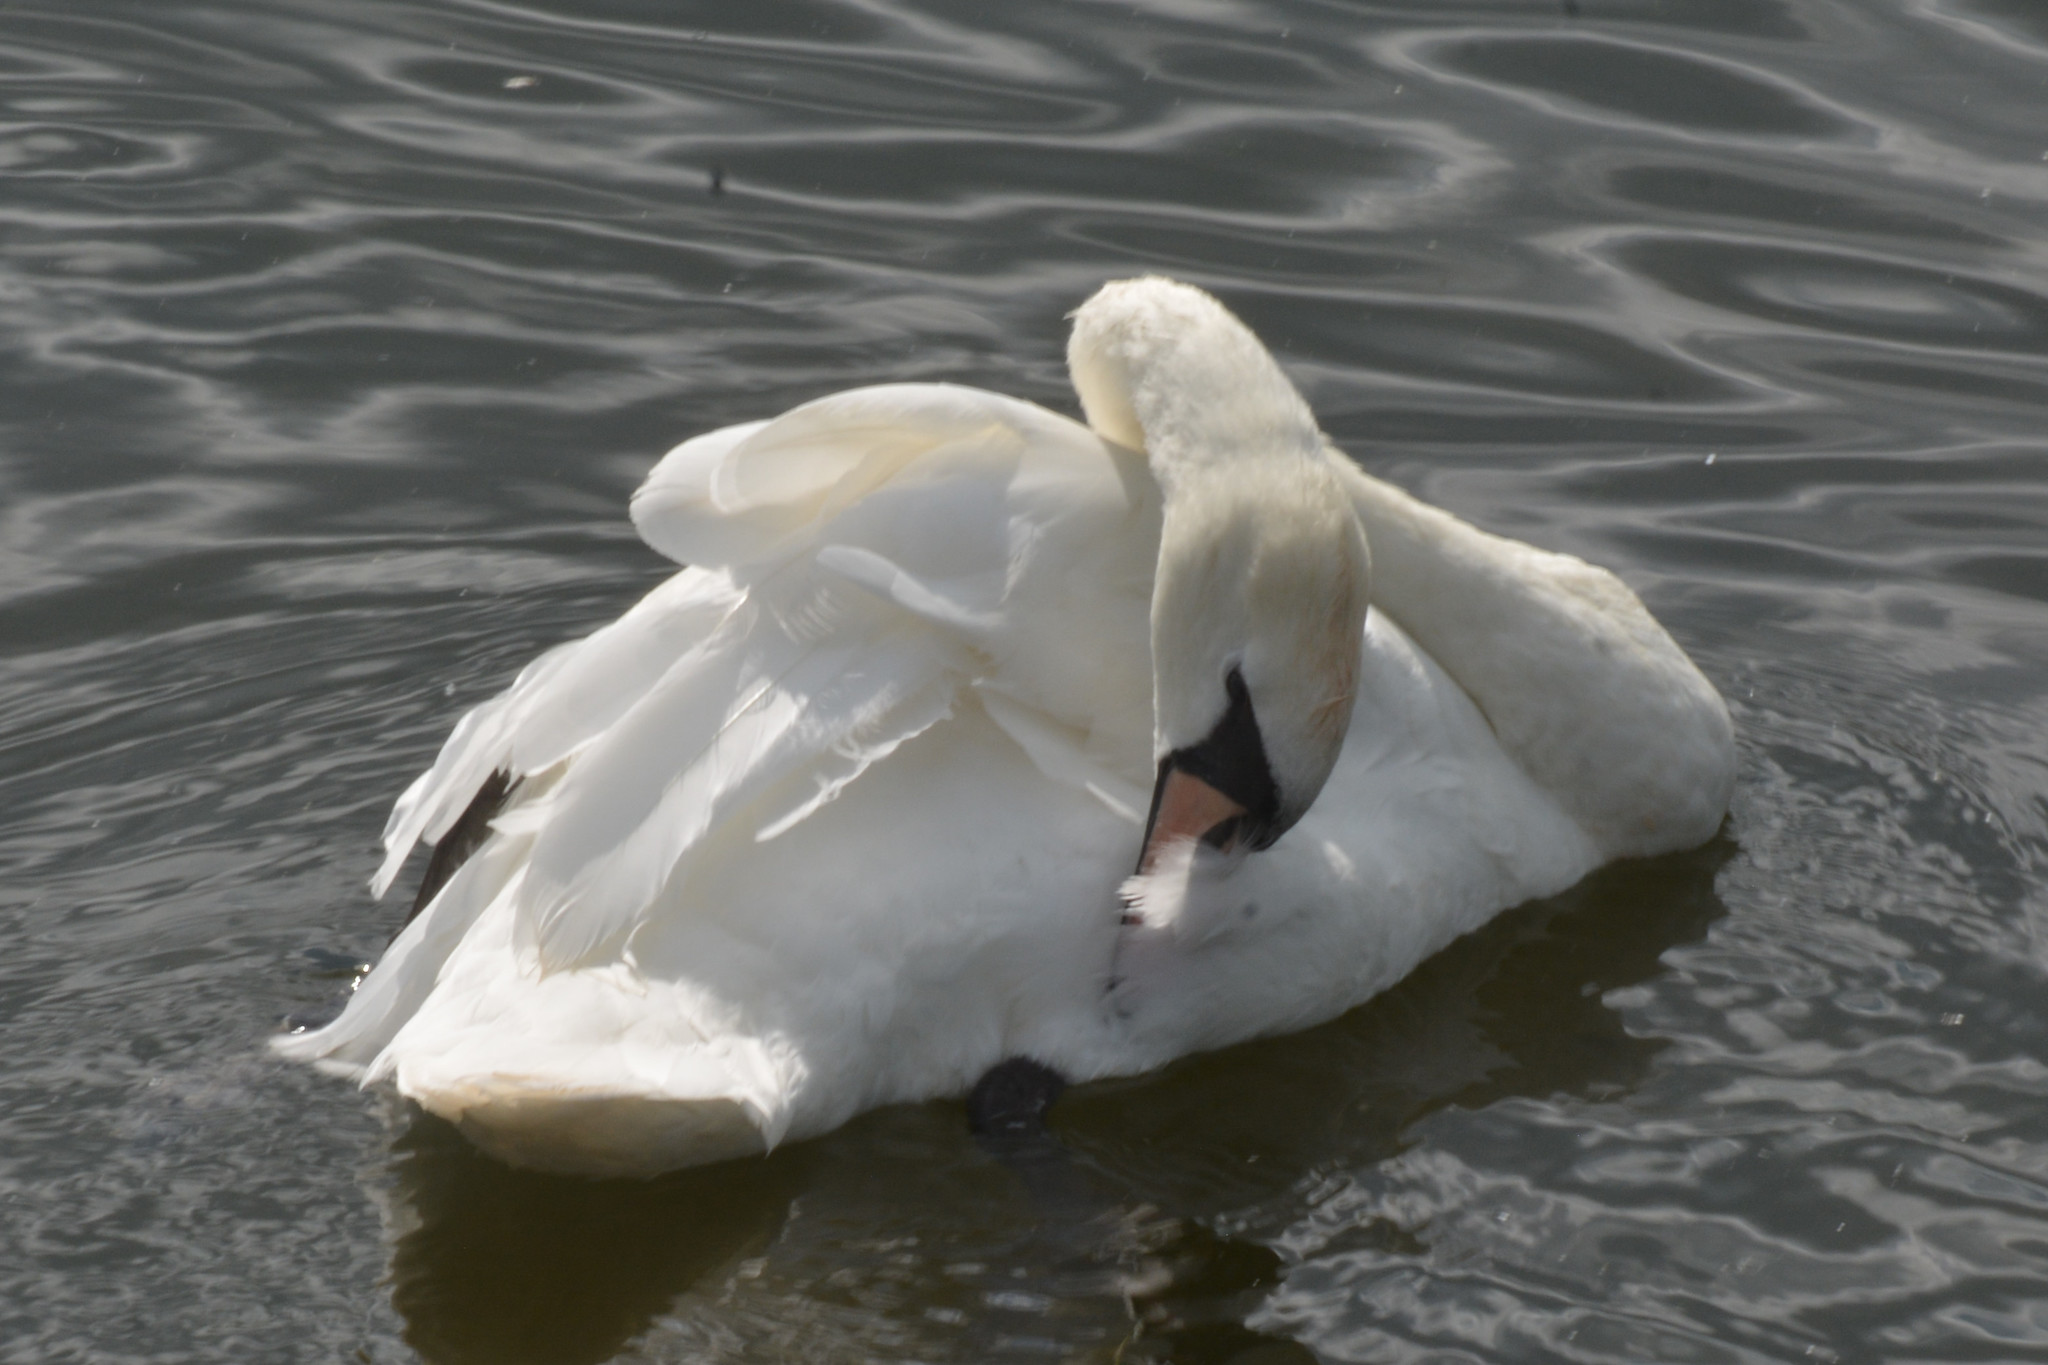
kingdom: Animalia
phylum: Chordata
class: Aves
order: Anseriformes
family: Anatidae
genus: Cygnus
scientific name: Cygnus olor
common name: Mute swan
